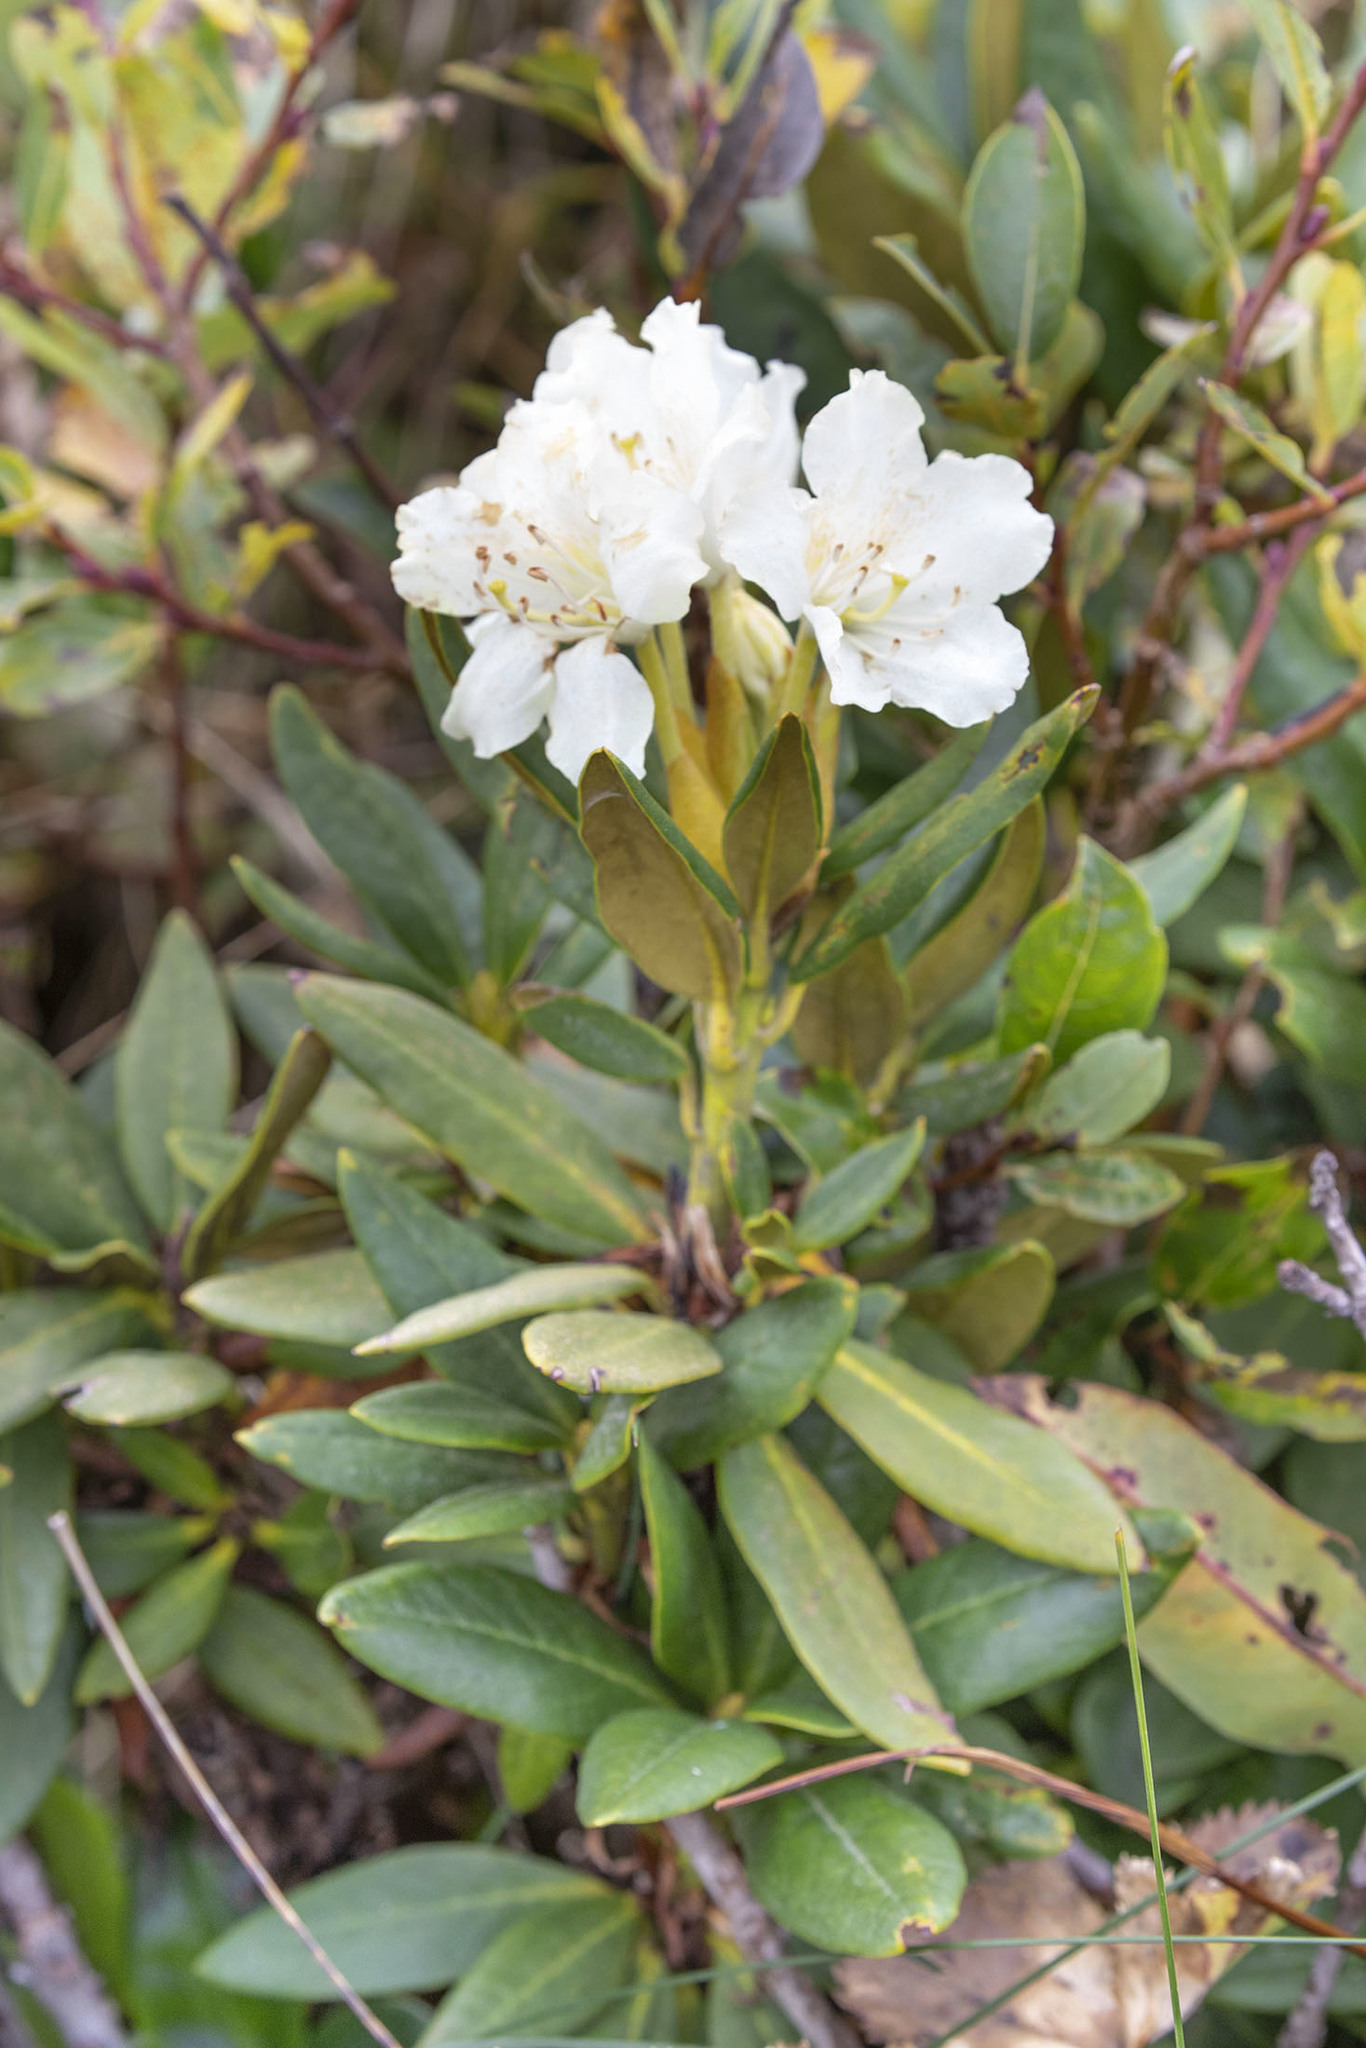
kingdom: Plantae
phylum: Tracheophyta
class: Magnoliopsida
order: Ericales
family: Ericaceae
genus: Rhododendron
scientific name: Rhododendron caucasicum
